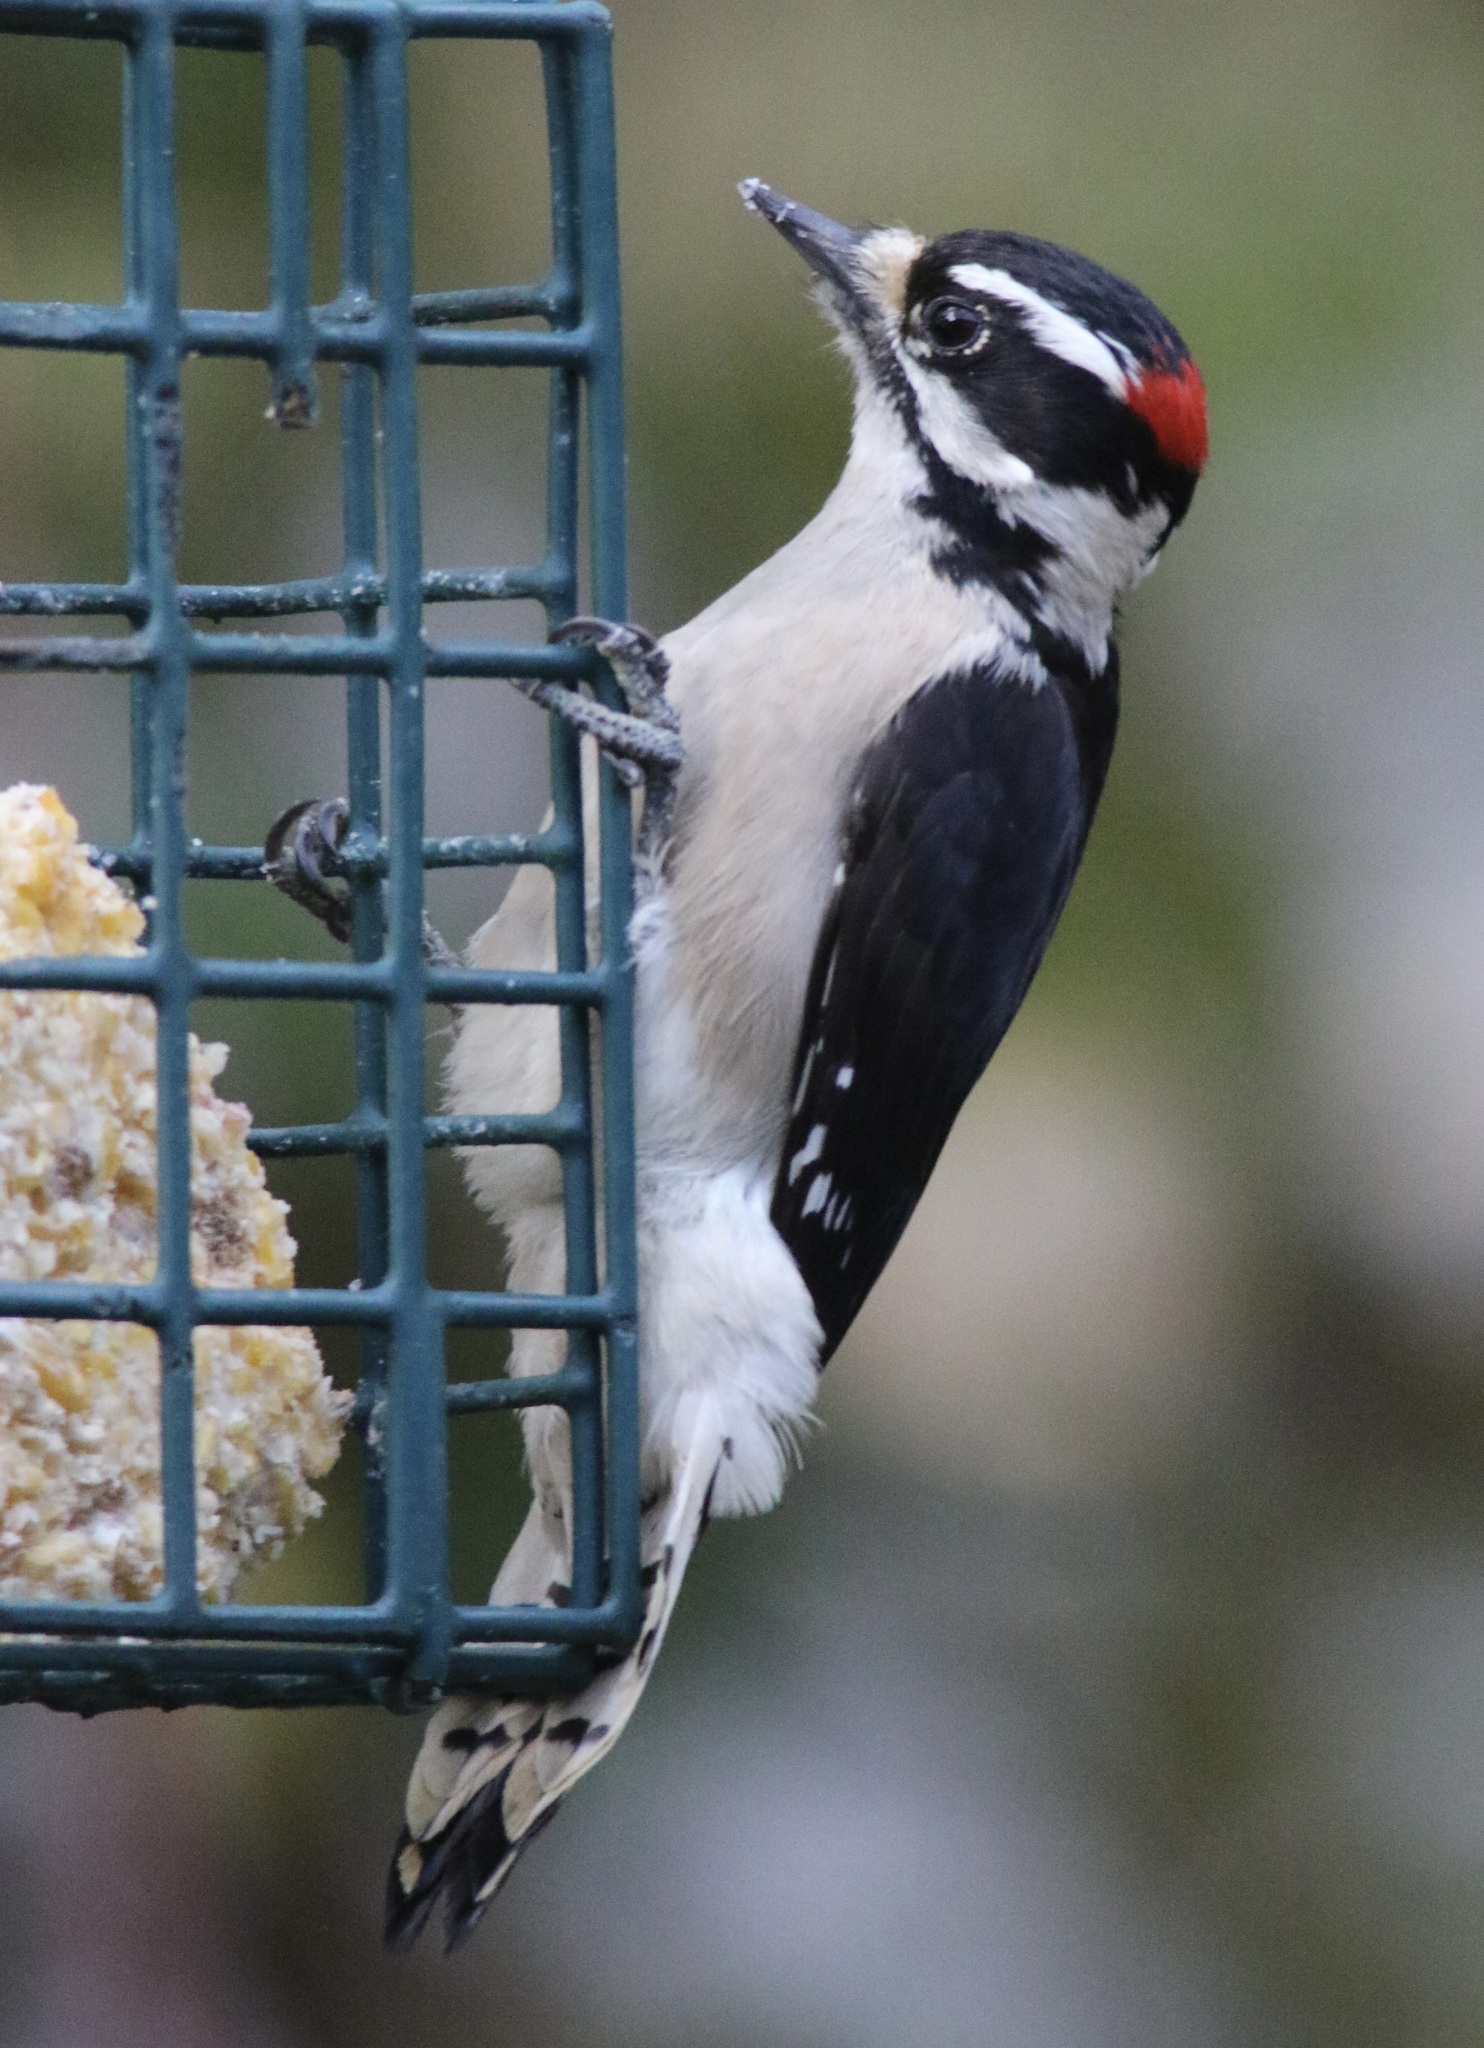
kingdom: Animalia
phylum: Chordata
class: Aves
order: Piciformes
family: Picidae
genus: Dryobates
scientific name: Dryobates pubescens
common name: Downy woodpecker
